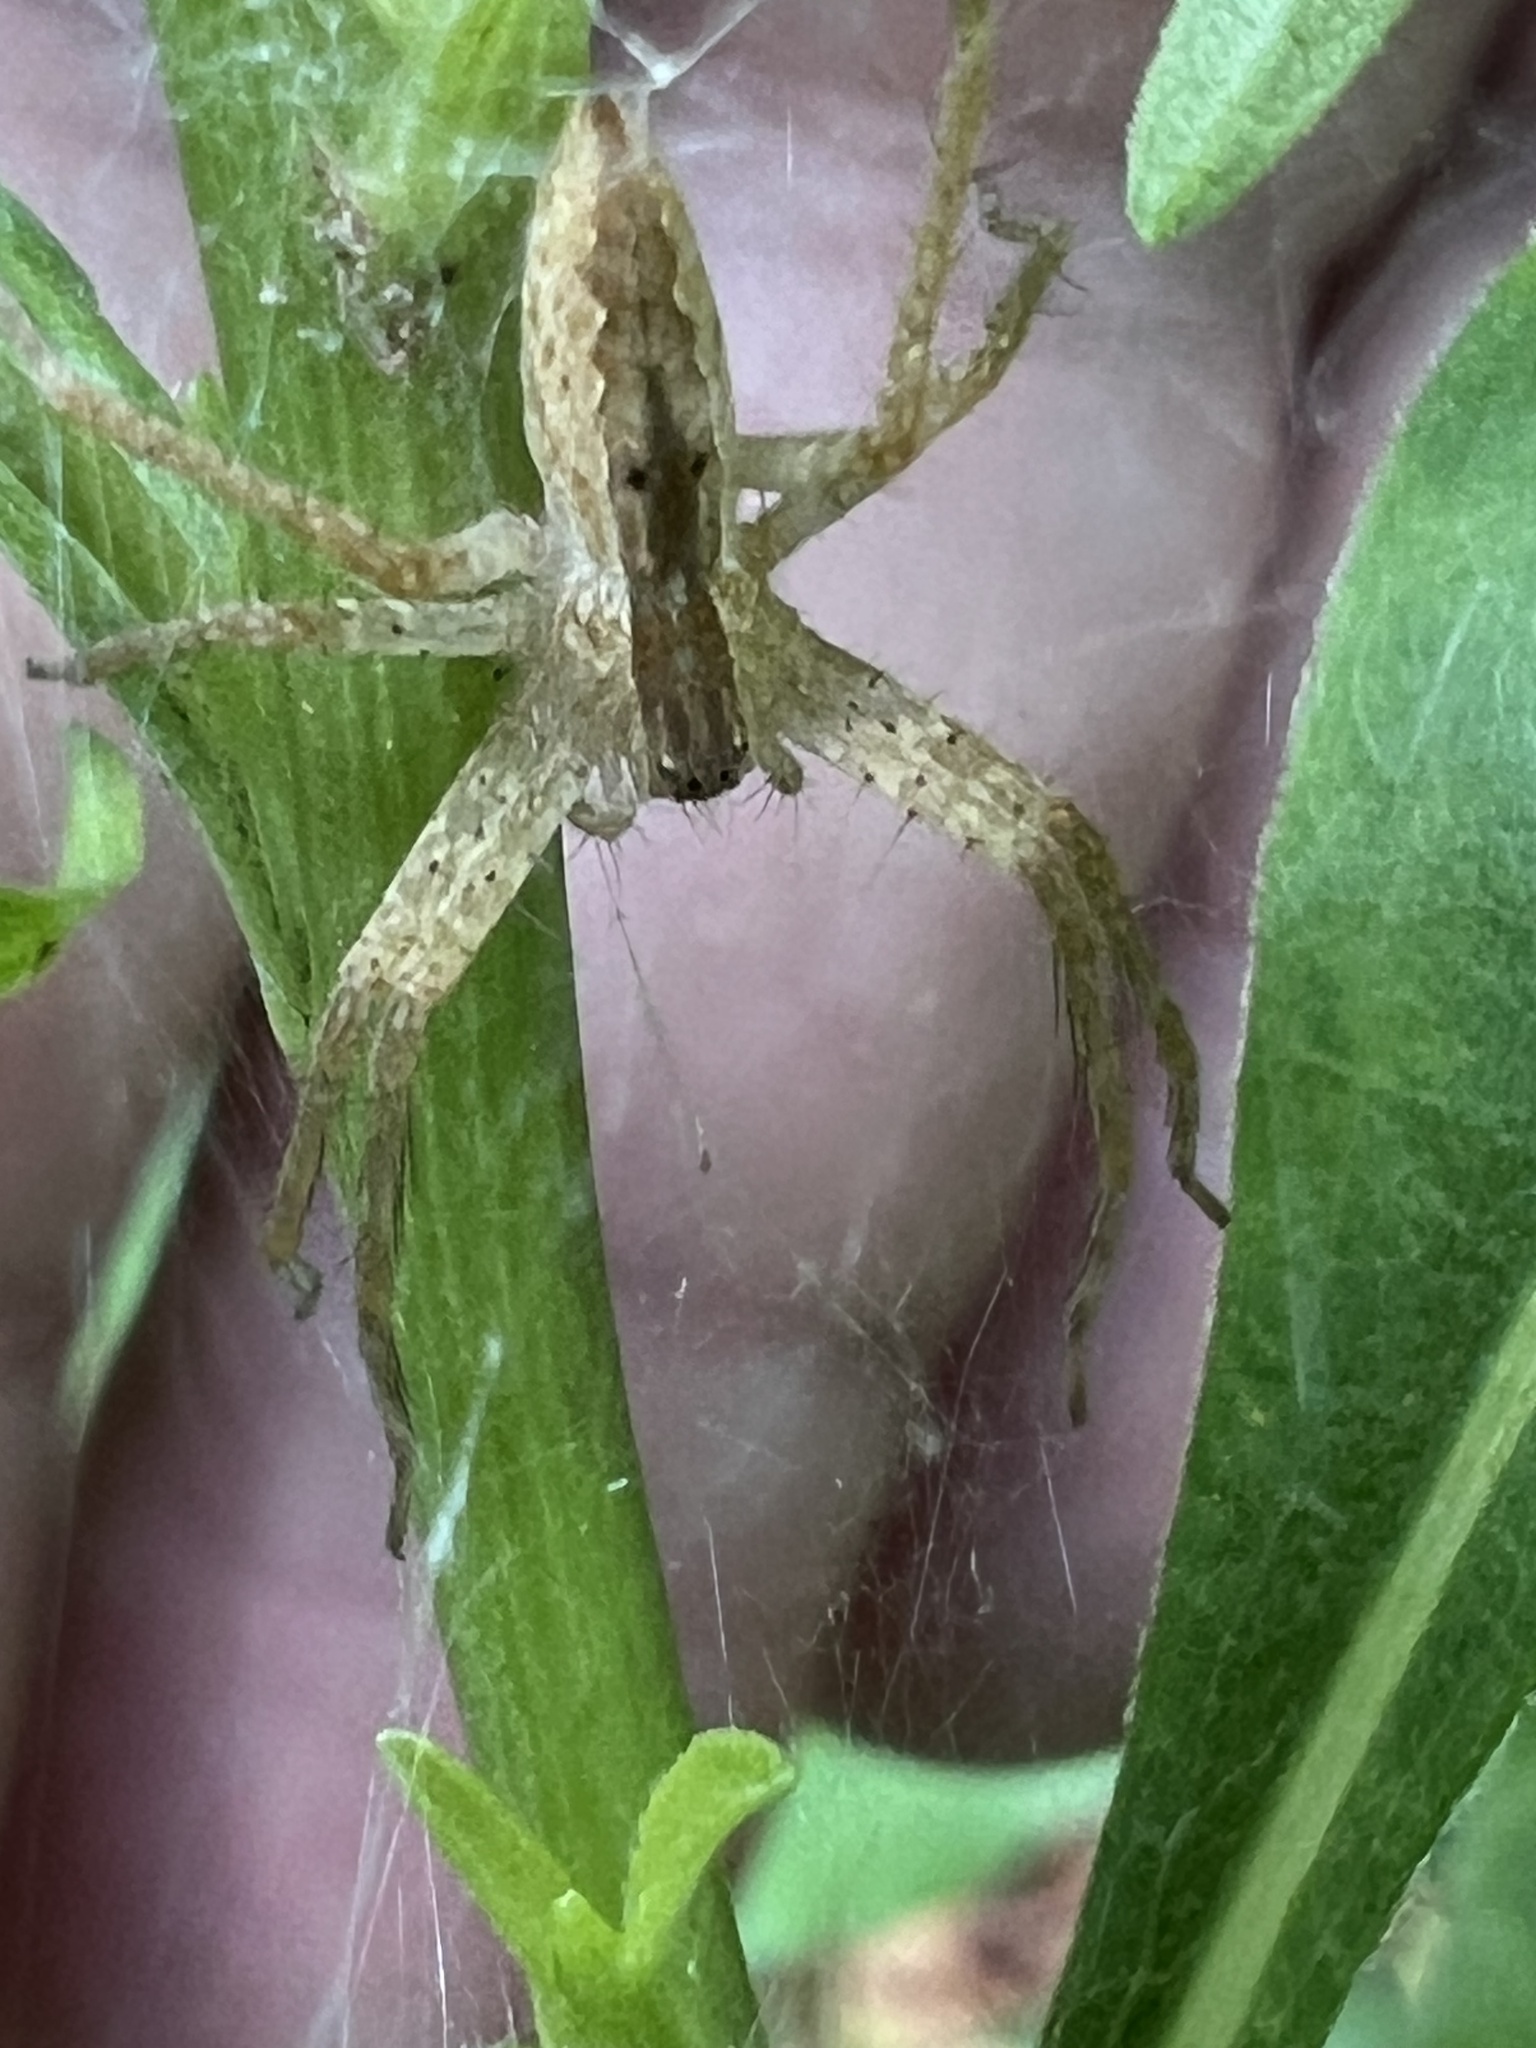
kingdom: Animalia
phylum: Arthropoda
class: Arachnida
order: Araneae
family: Pisauridae
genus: Pisaurina
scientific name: Pisaurina mira
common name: American nursery web spider
